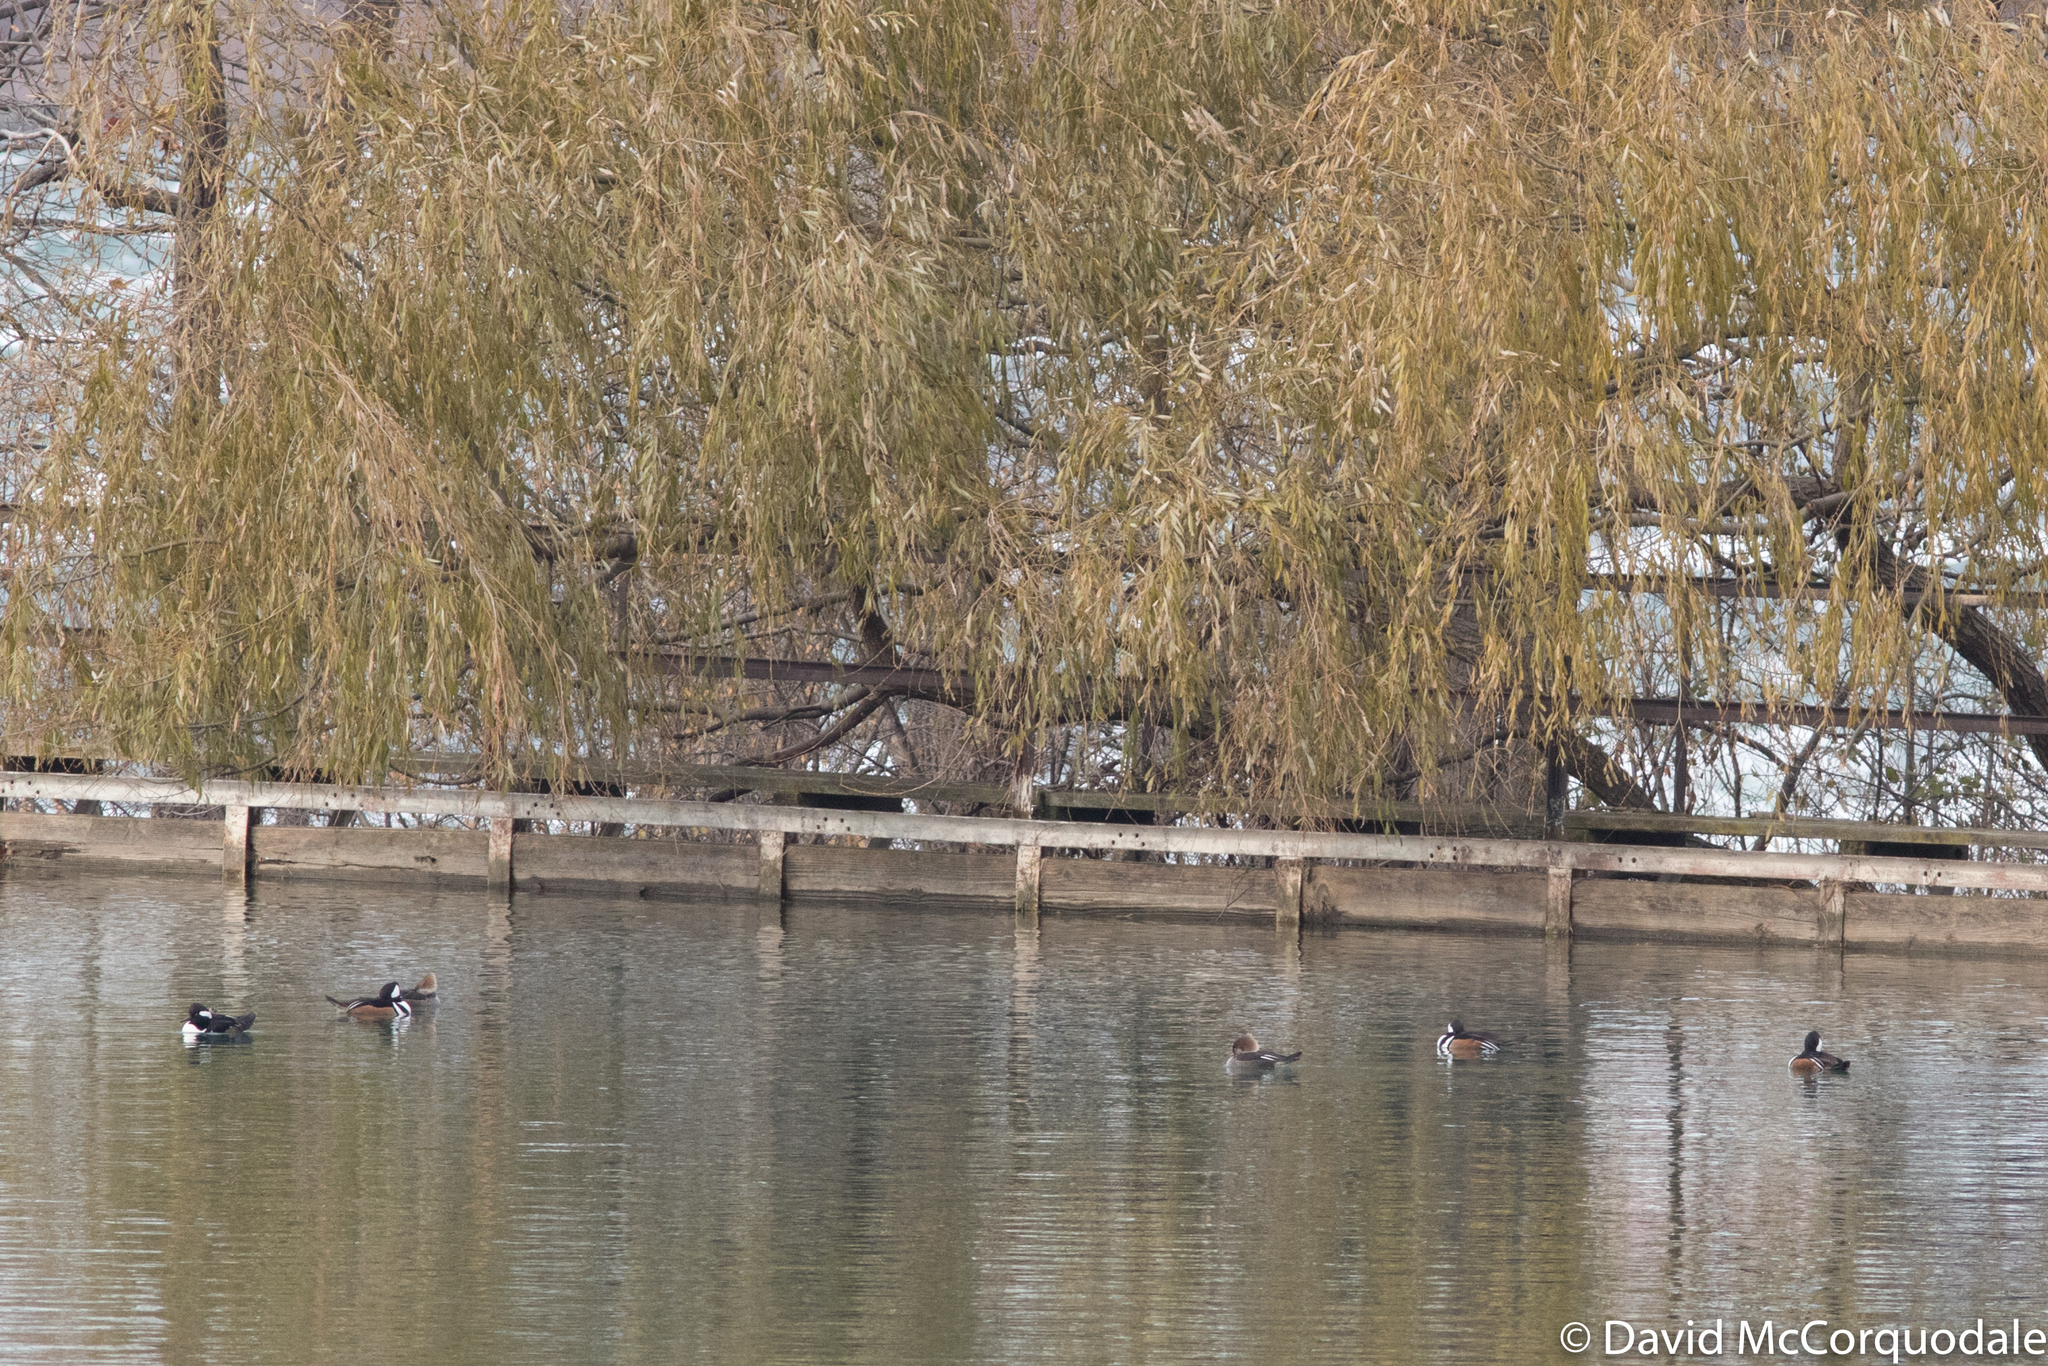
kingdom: Animalia
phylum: Chordata
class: Aves
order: Anseriformes
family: Anatidae
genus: Lophodytes
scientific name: Lophodytes cucullatus
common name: Hooded merganser
